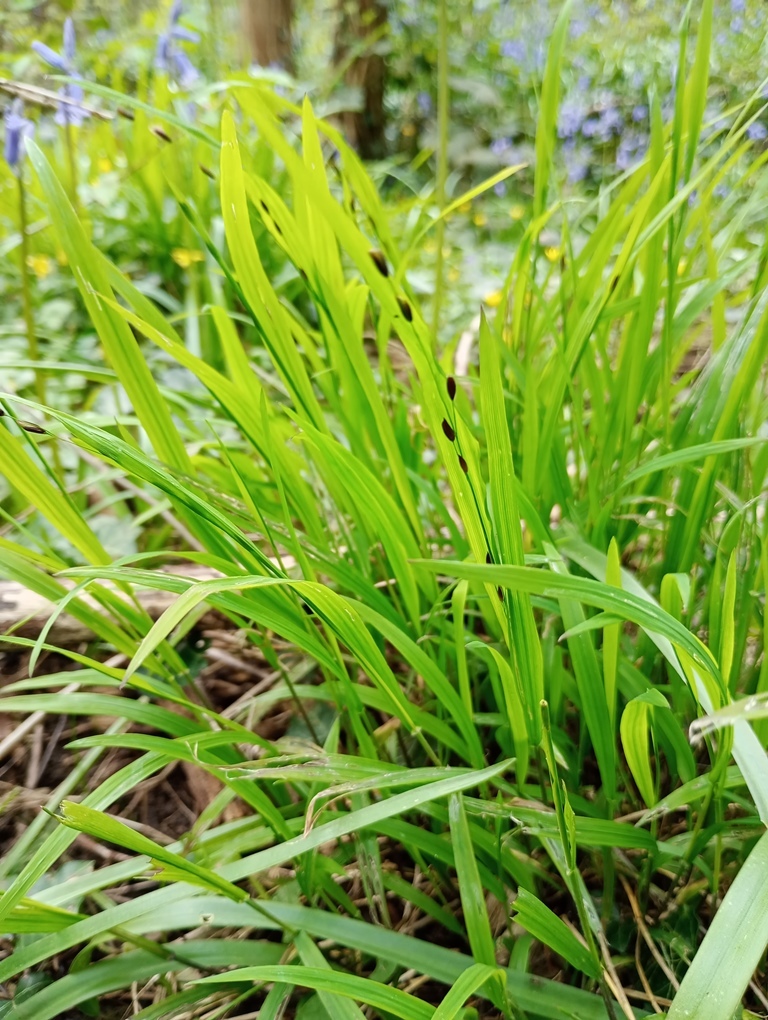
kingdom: Plantae
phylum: Tracheophyta
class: Liliopsida
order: Poales
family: Poaceae
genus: Melica
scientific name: Melica uniflora
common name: Wood melick
